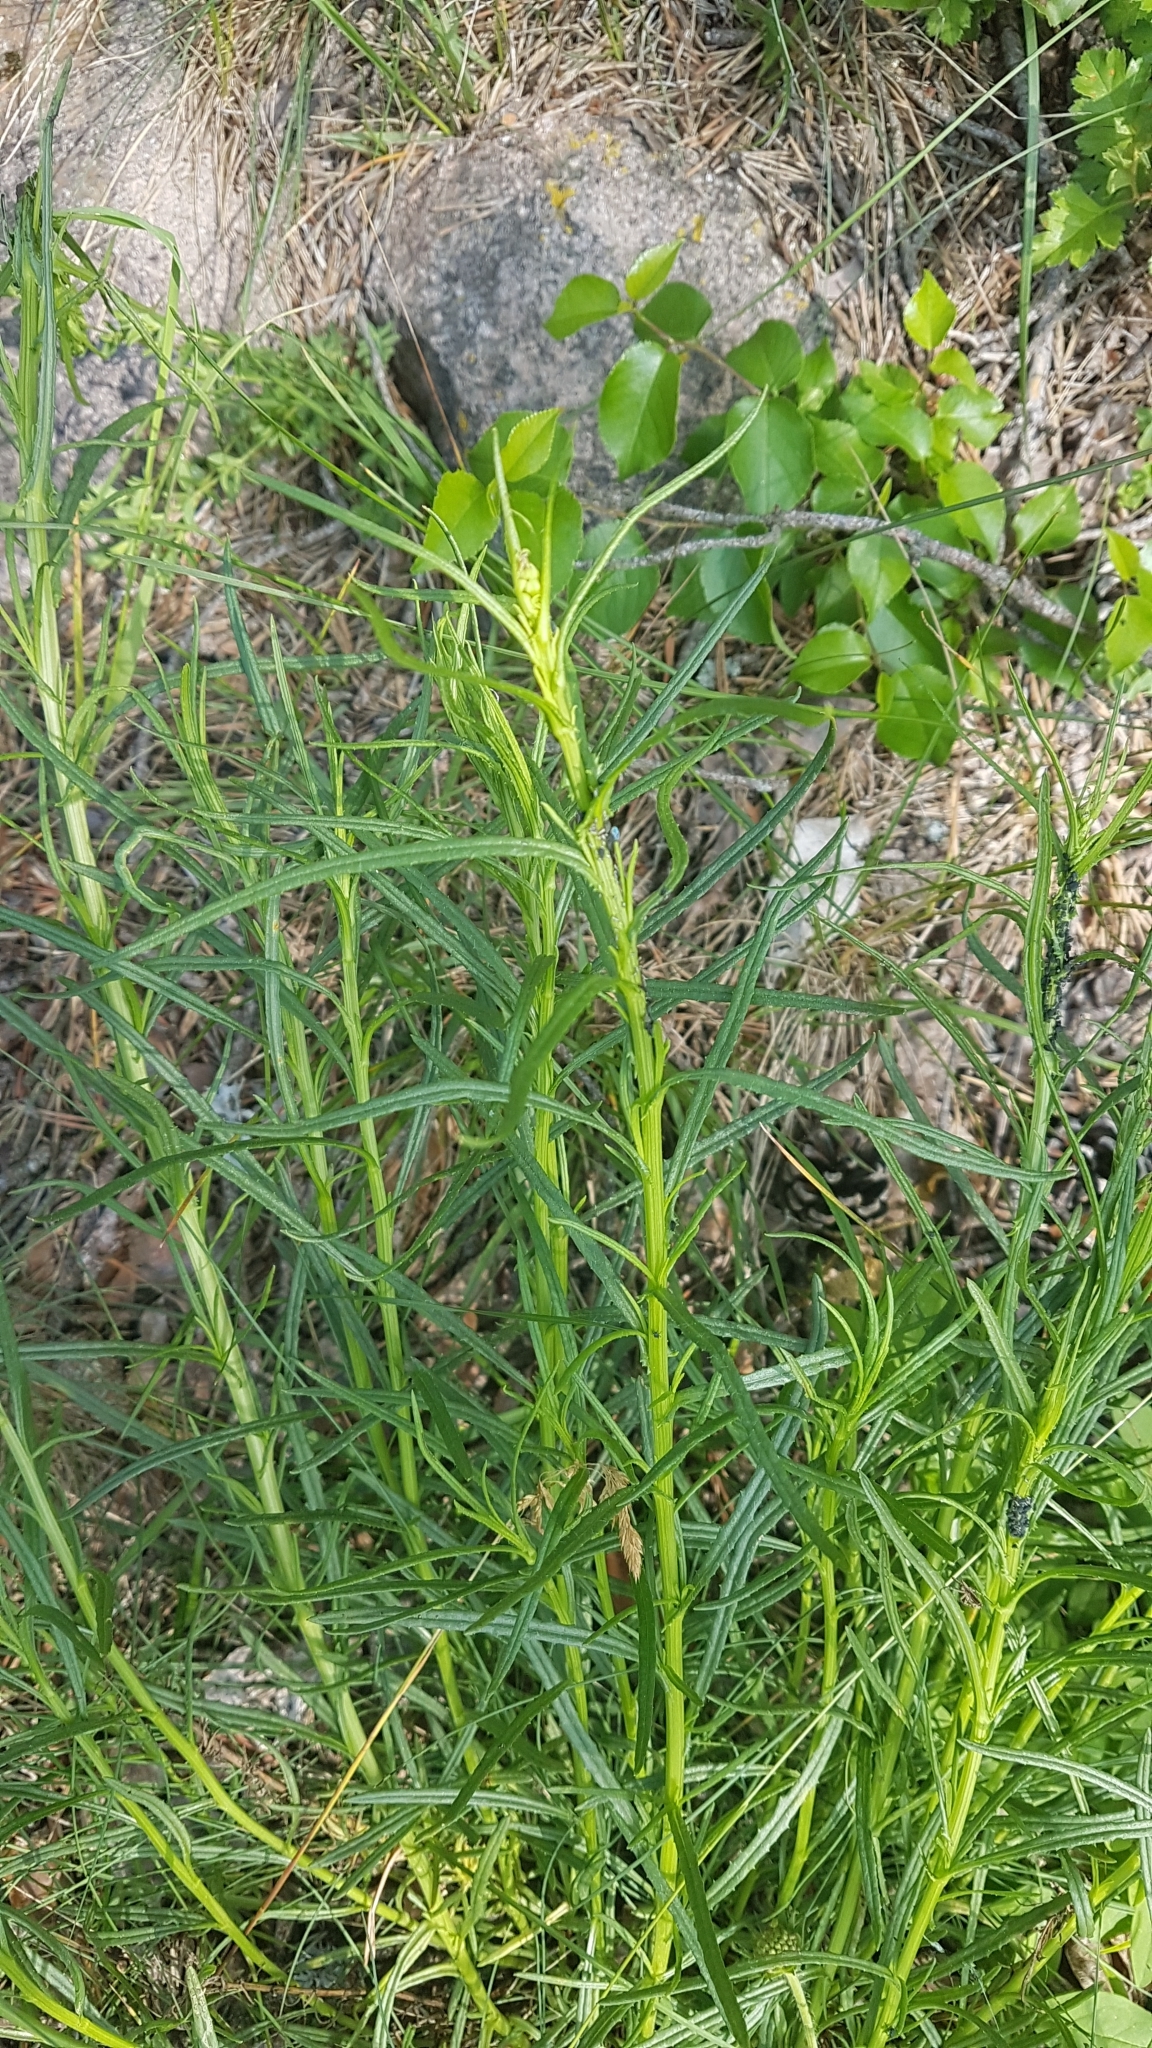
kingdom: Plantae
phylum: Tracheophyta
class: Magnoliopsida
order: Asterales
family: Asteraceae
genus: Senecio
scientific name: Senecio inaequidens
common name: Narrow-leaved ragwort
